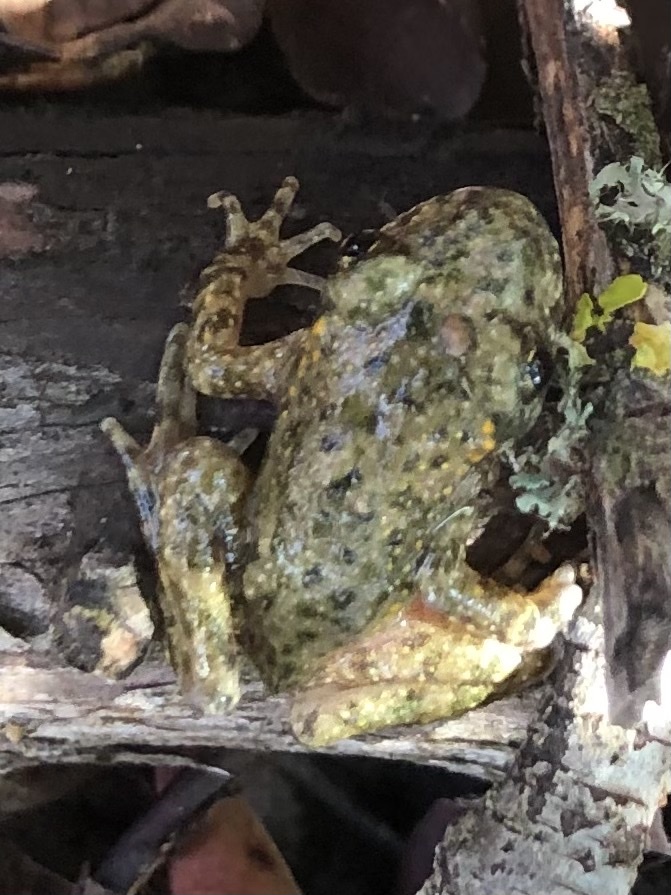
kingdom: Animalia
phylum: Chordata
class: Amphibia
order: Anura
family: Alytidae
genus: Alytes
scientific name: Alytes obstetricans
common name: Midwife toad
